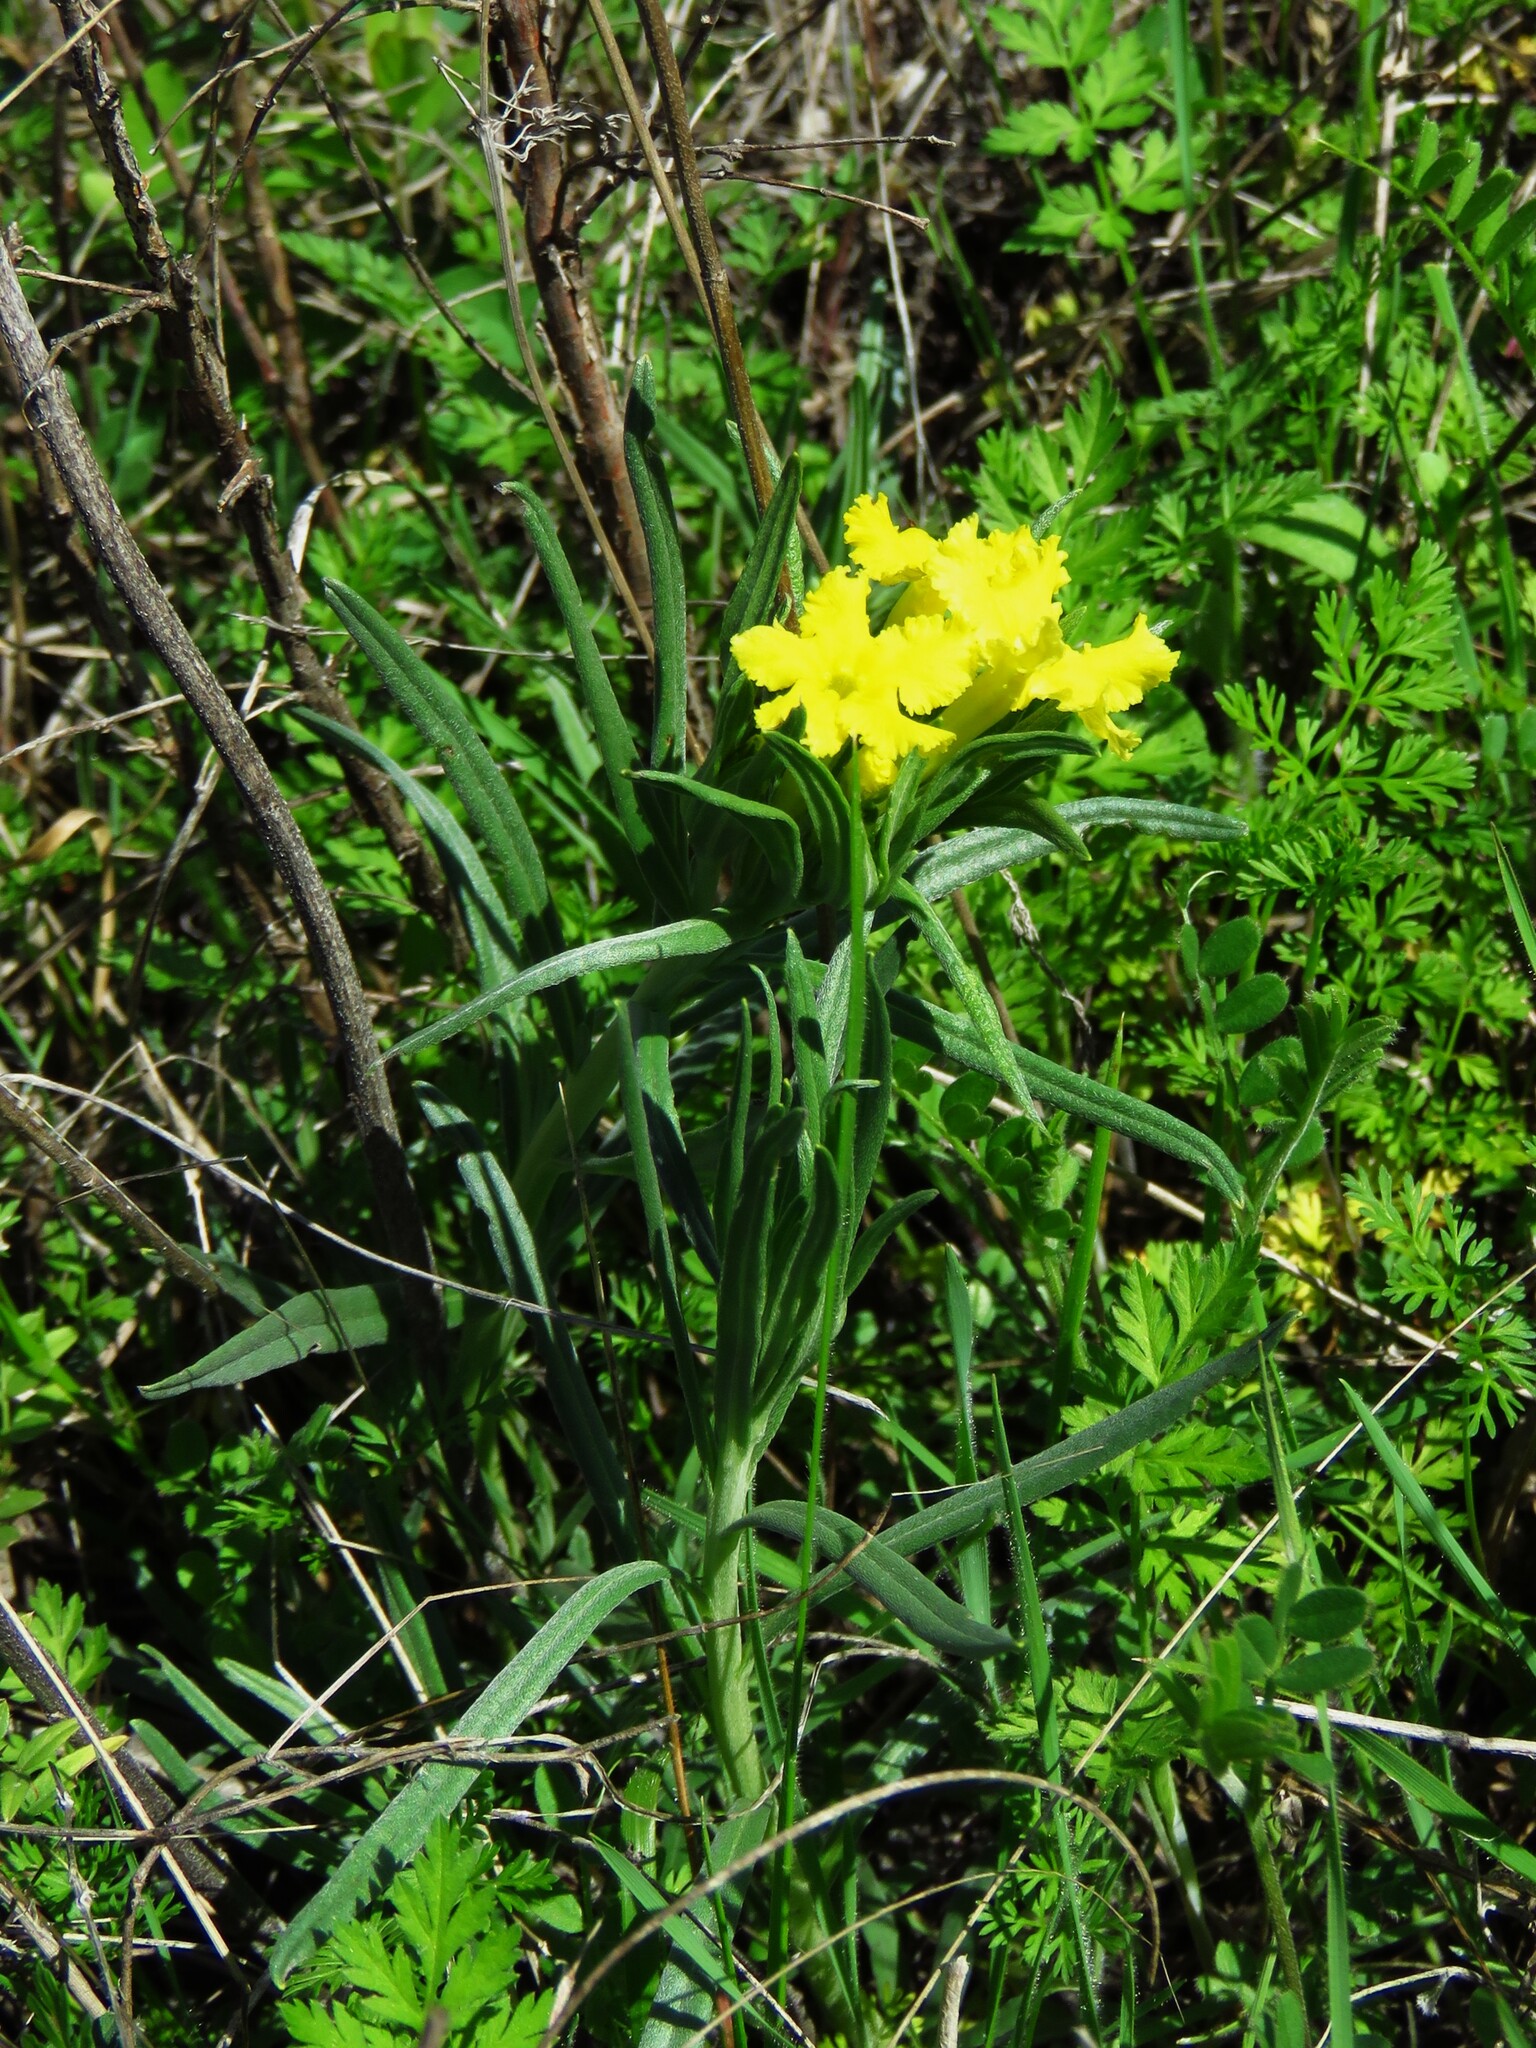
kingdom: Plantae
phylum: Tracheophyta
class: Magnoliopsida
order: Boraginales
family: Boraginaceae
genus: Lithospermum
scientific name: Lithospermum incisum
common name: Fringed gromwell
